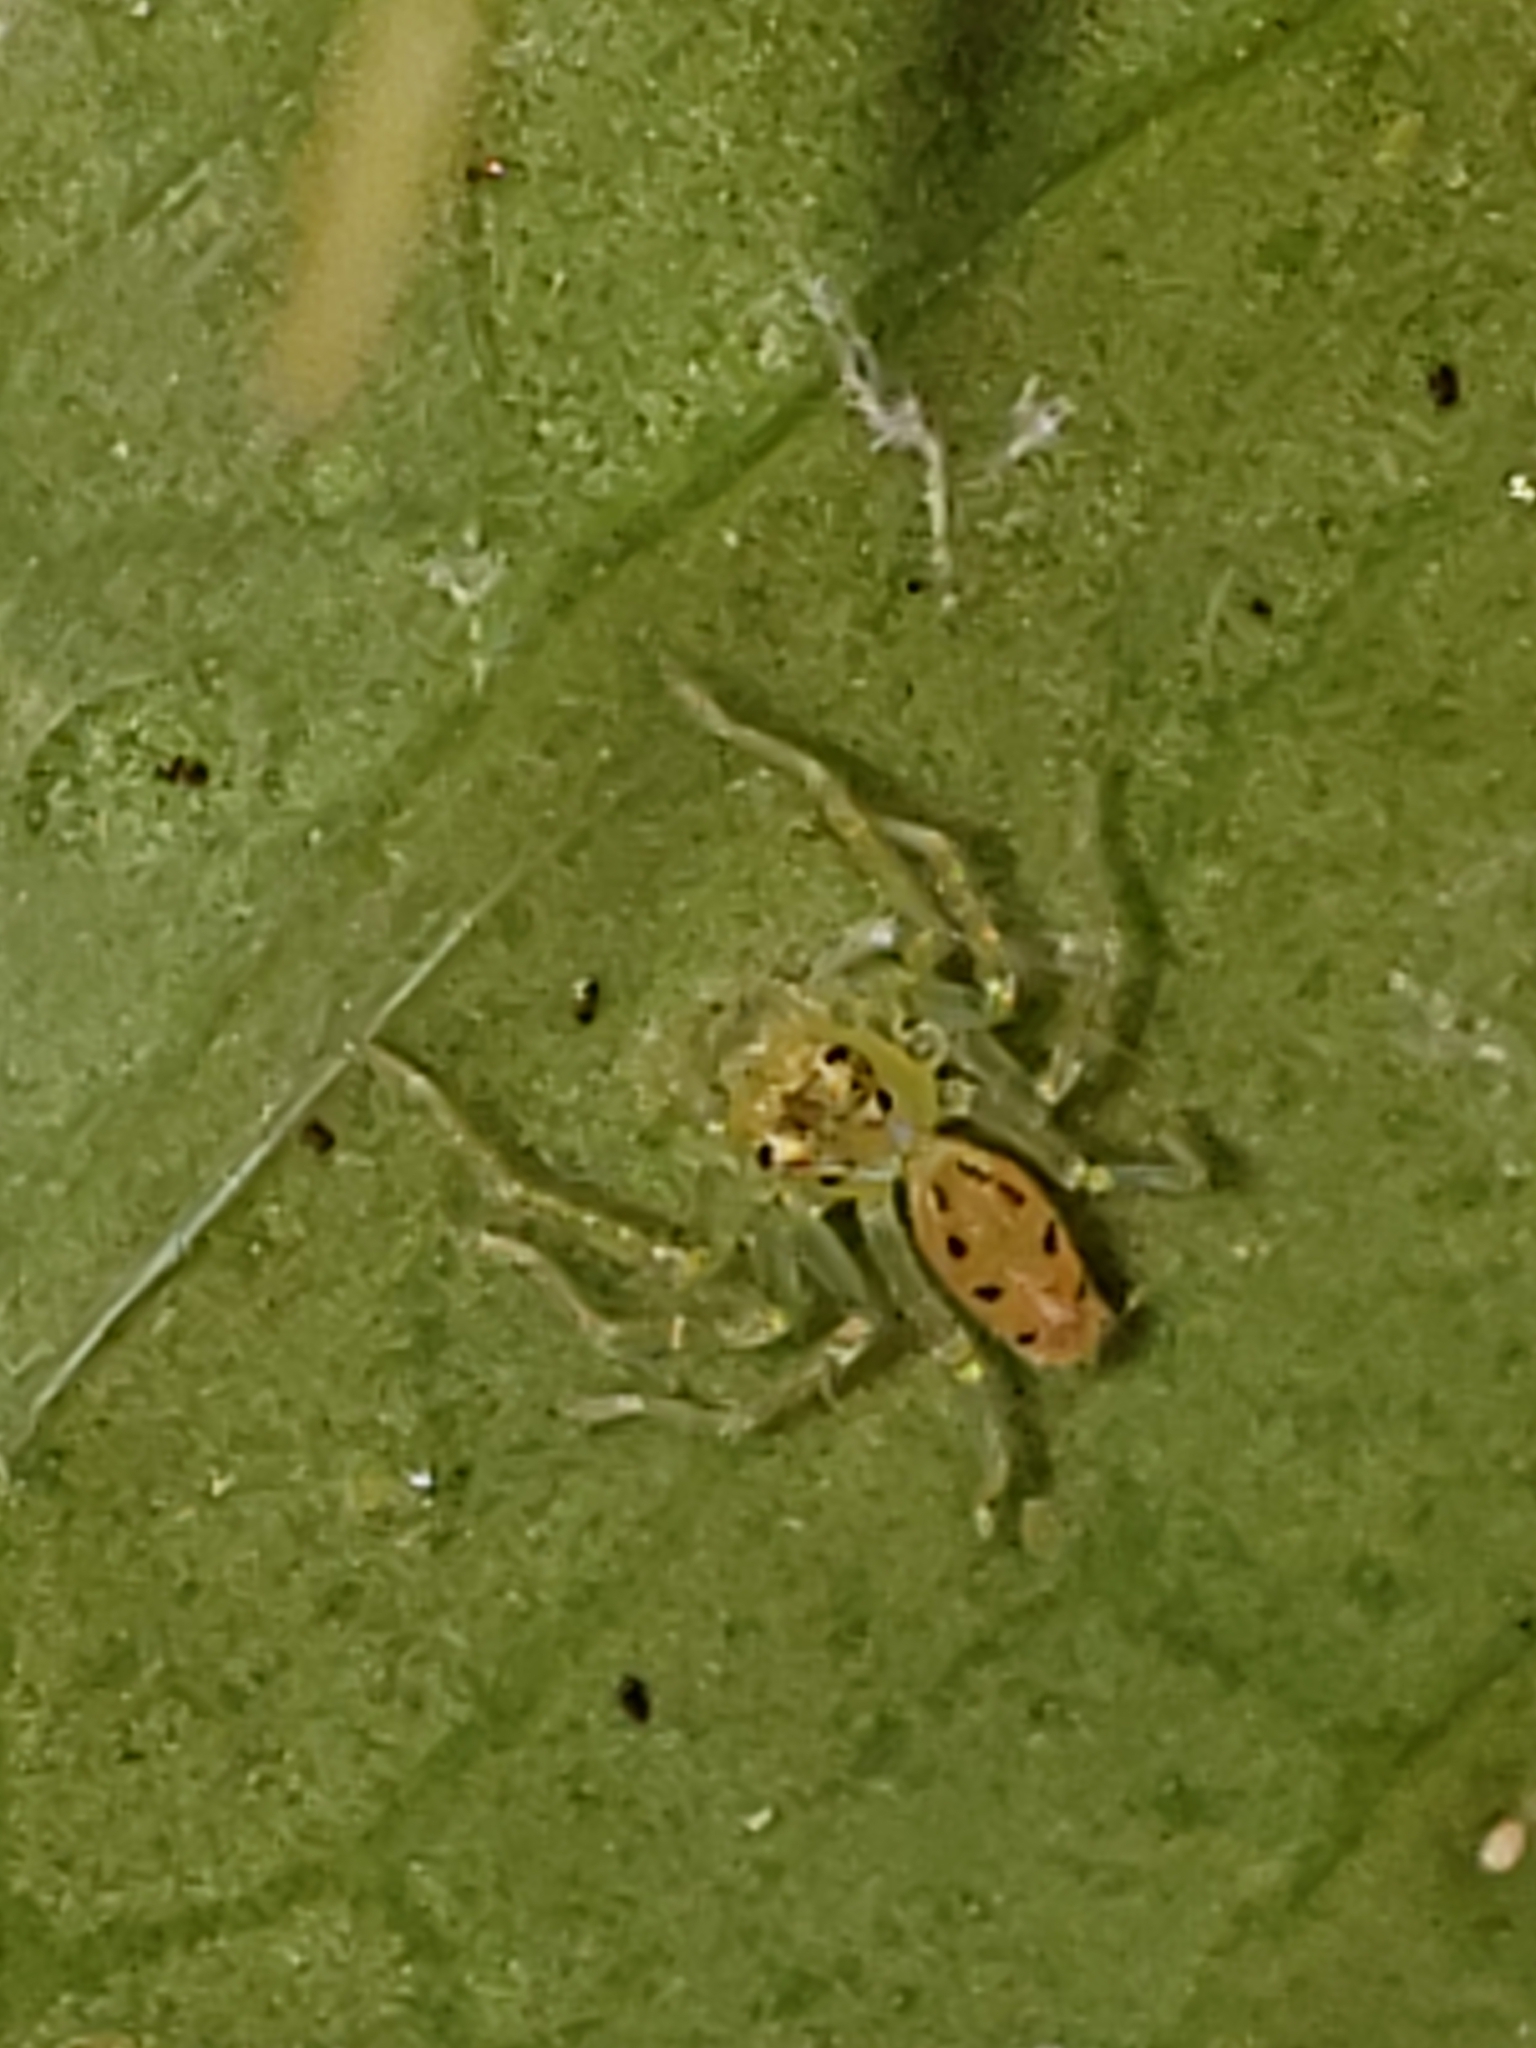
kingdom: Animalia
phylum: Arthropoda
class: Arachnida
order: Araneae
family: Salticidae
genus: Lyssomanes
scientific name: Lyssomanes viridis
